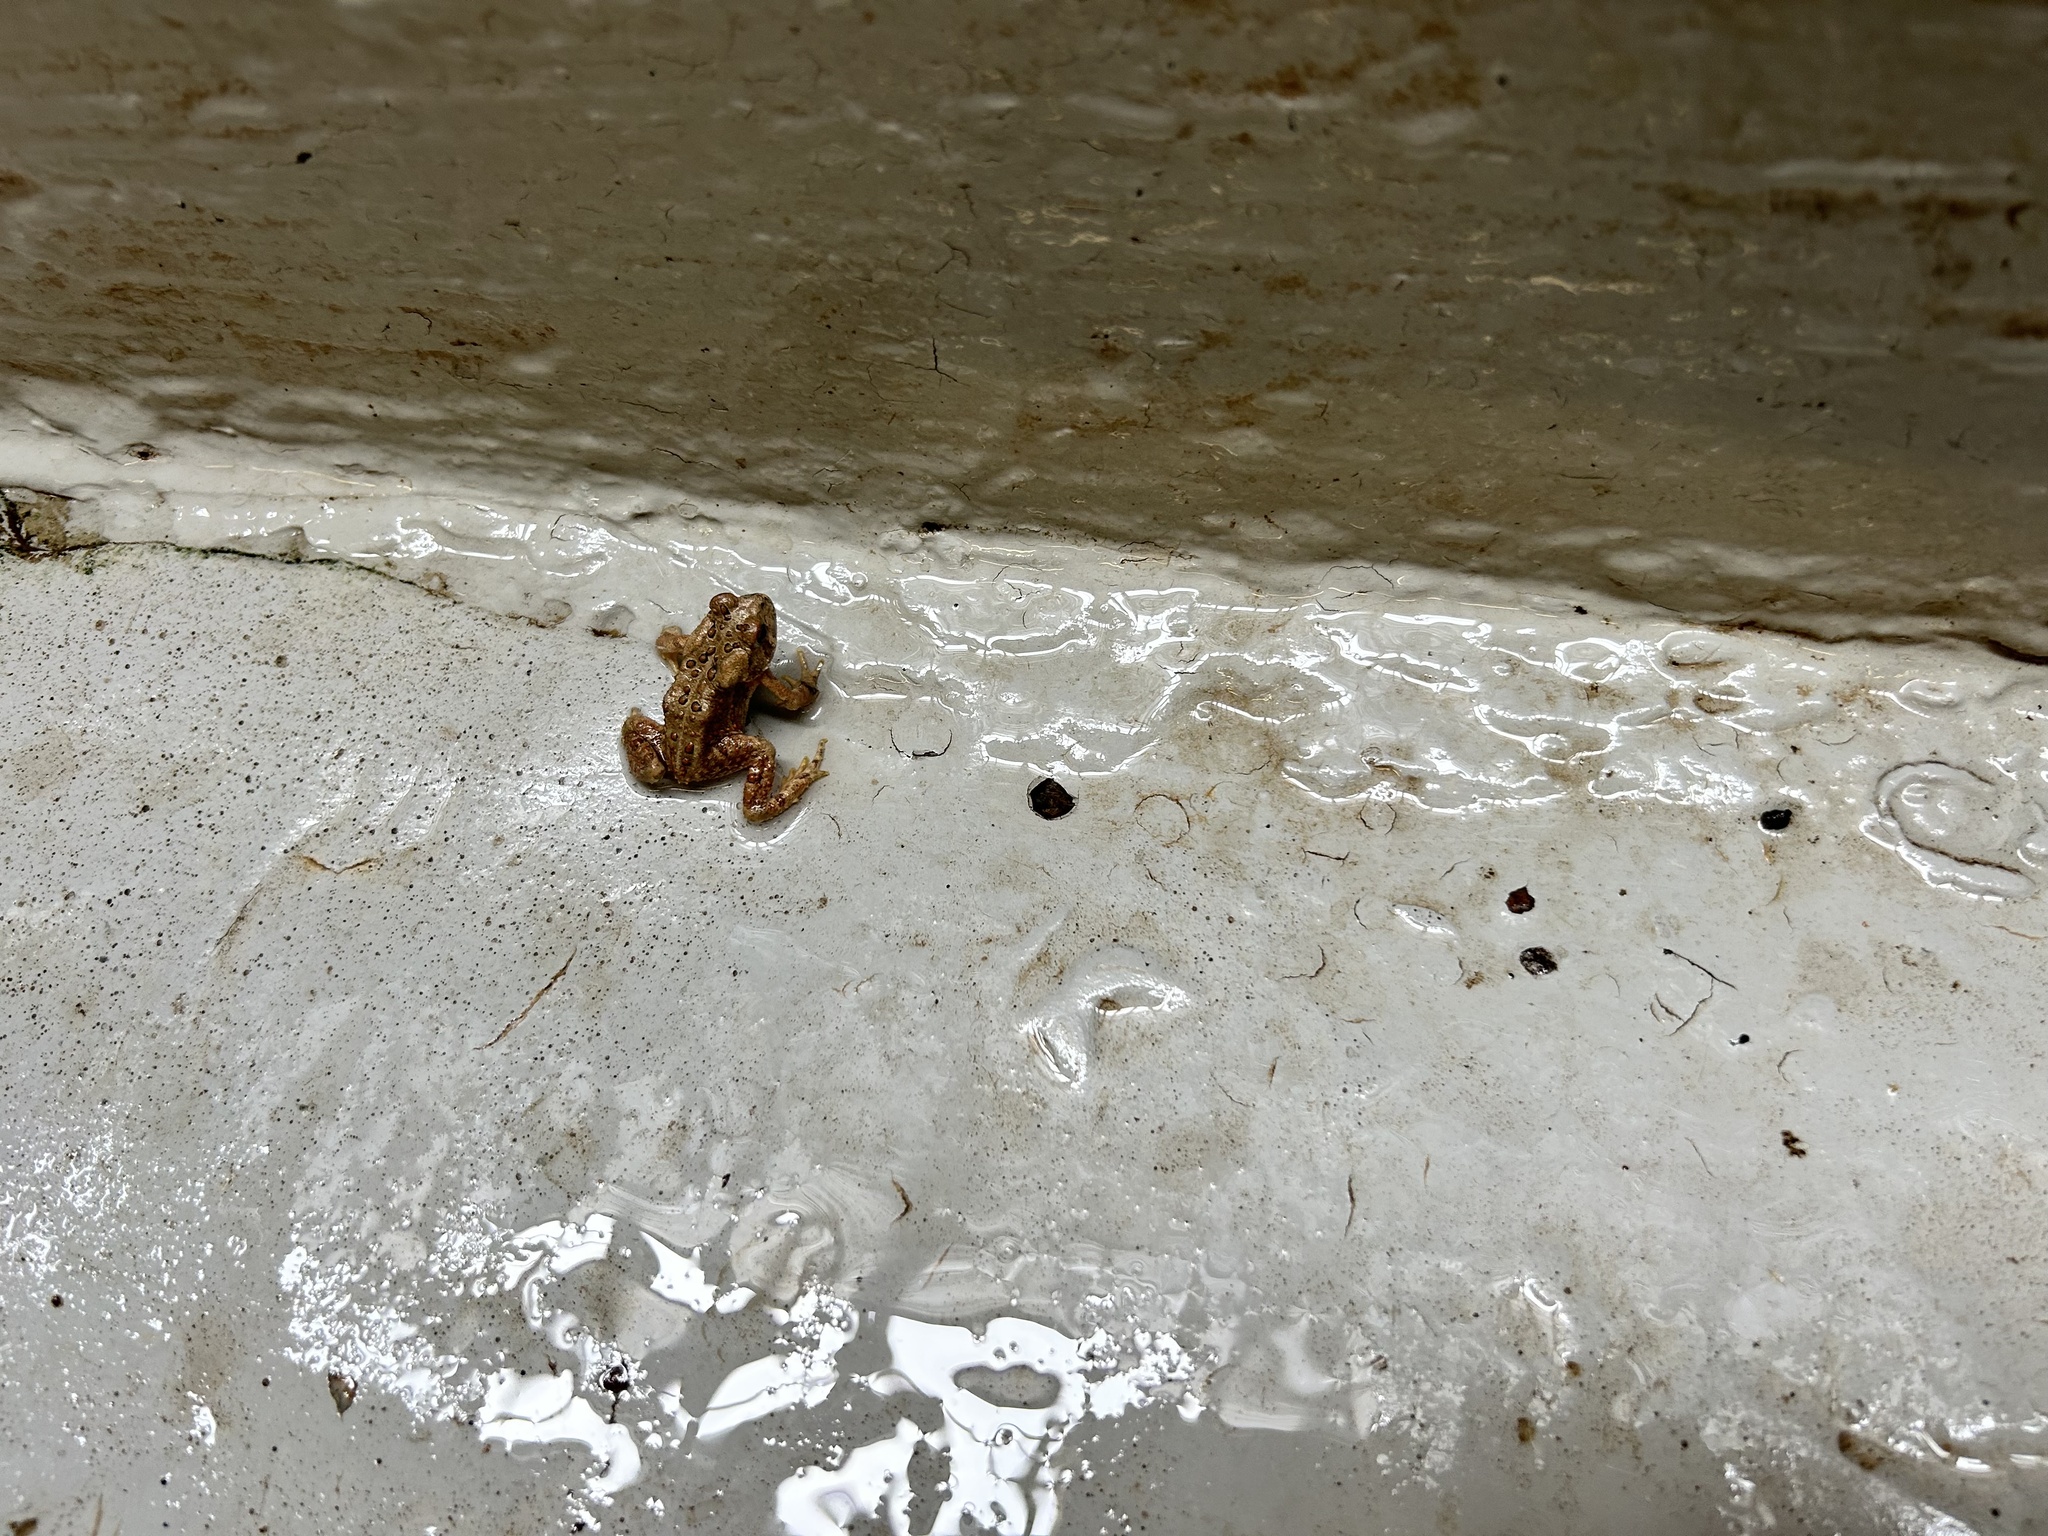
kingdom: Animalia
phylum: Chordata
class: Amphibia
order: Anura
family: Bufonidae
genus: Anaxyrus
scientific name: Anaxyrus americanus
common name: American toad
